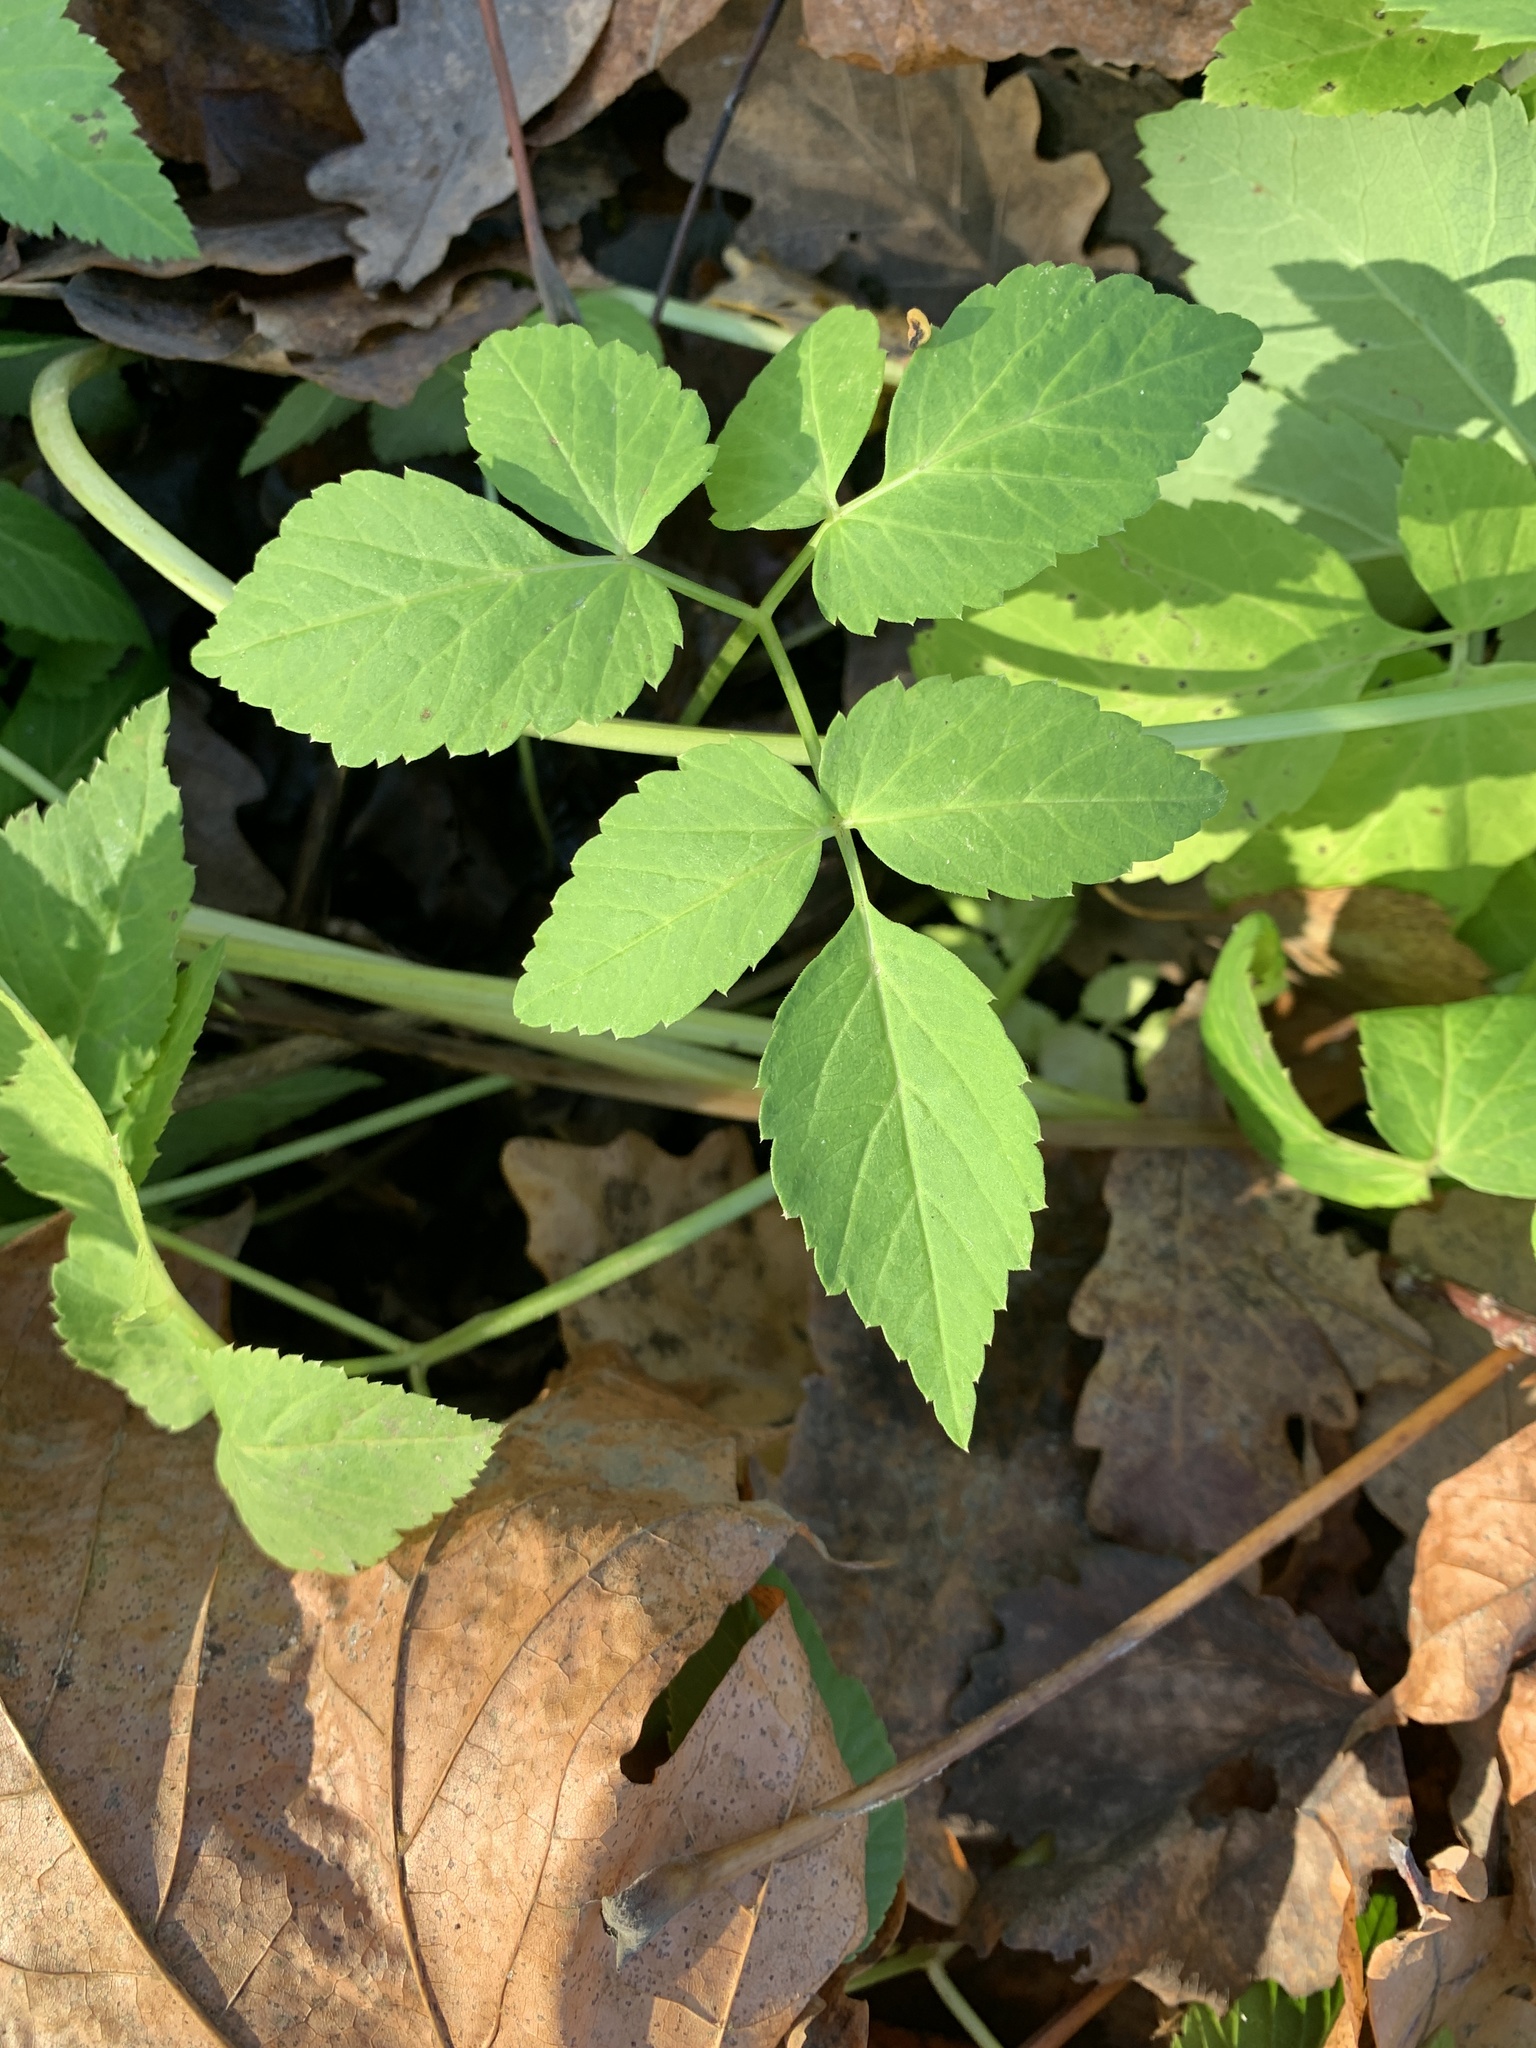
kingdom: Plantae
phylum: Tracheophyta
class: Magnoliopsida
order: Apiales
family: Apiaceae
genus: Aegopodium
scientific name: Aegopodium podagraria
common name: Ground-elder
